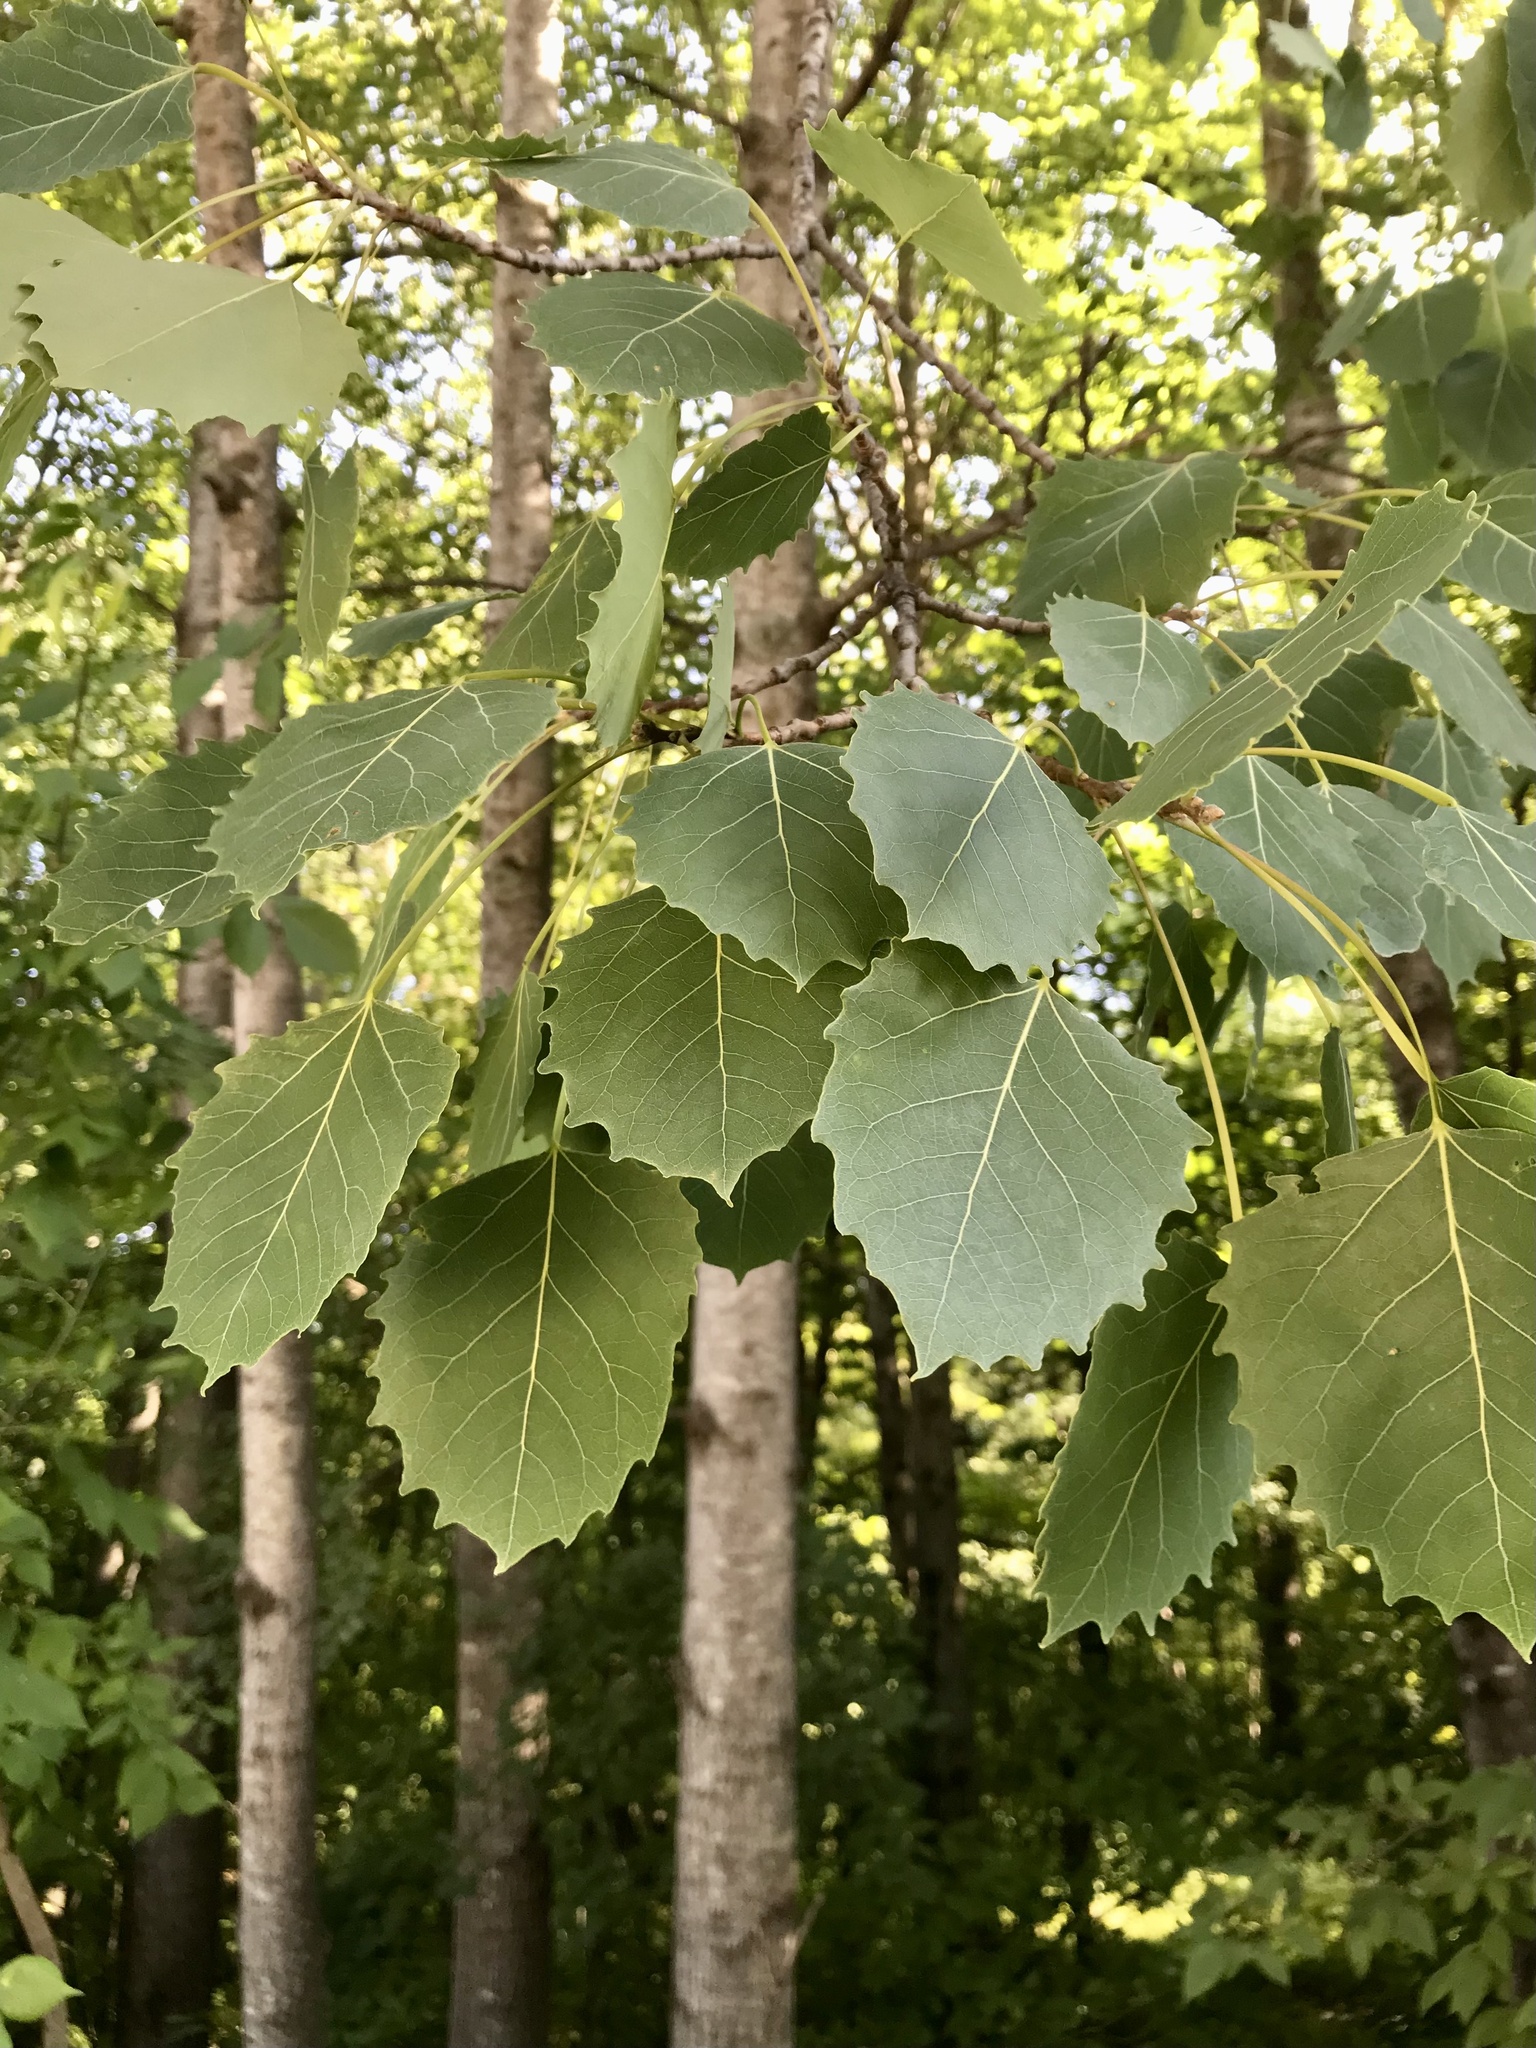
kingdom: Plantae
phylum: Tracheophyta
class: Magnoliopsida
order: Malpighiales
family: Salicaceae
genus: Populus
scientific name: Populus grandidentata
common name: Bigtooth aspen
